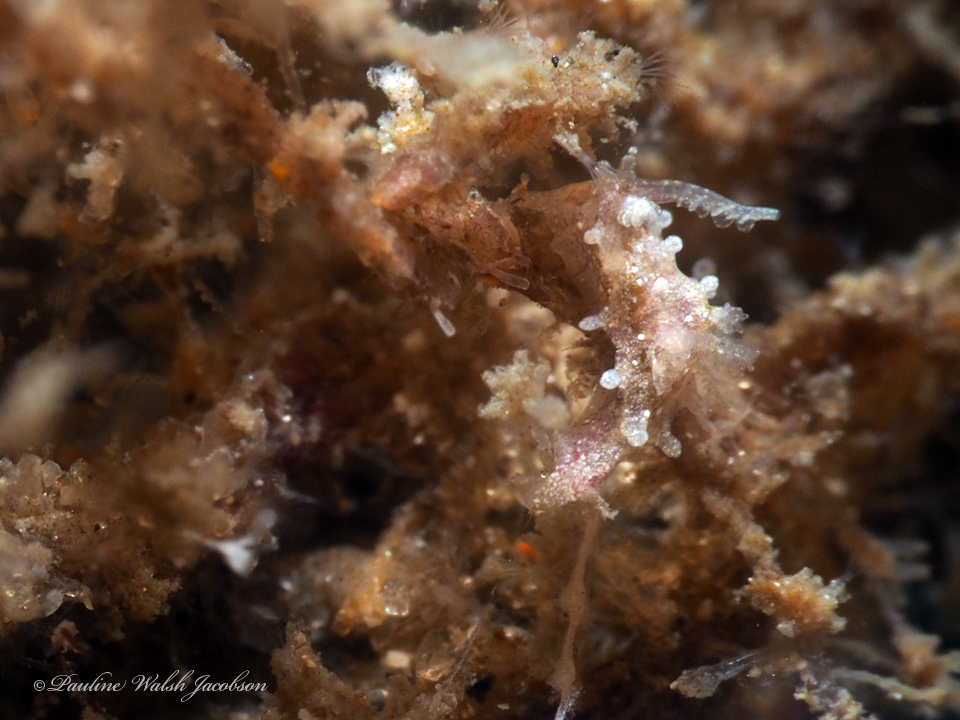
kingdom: Animalia
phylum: Mollusca
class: Gastropoda
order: Nudibranchia
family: Goniodorididae
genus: Okenia
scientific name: Okenia zoobotryon
